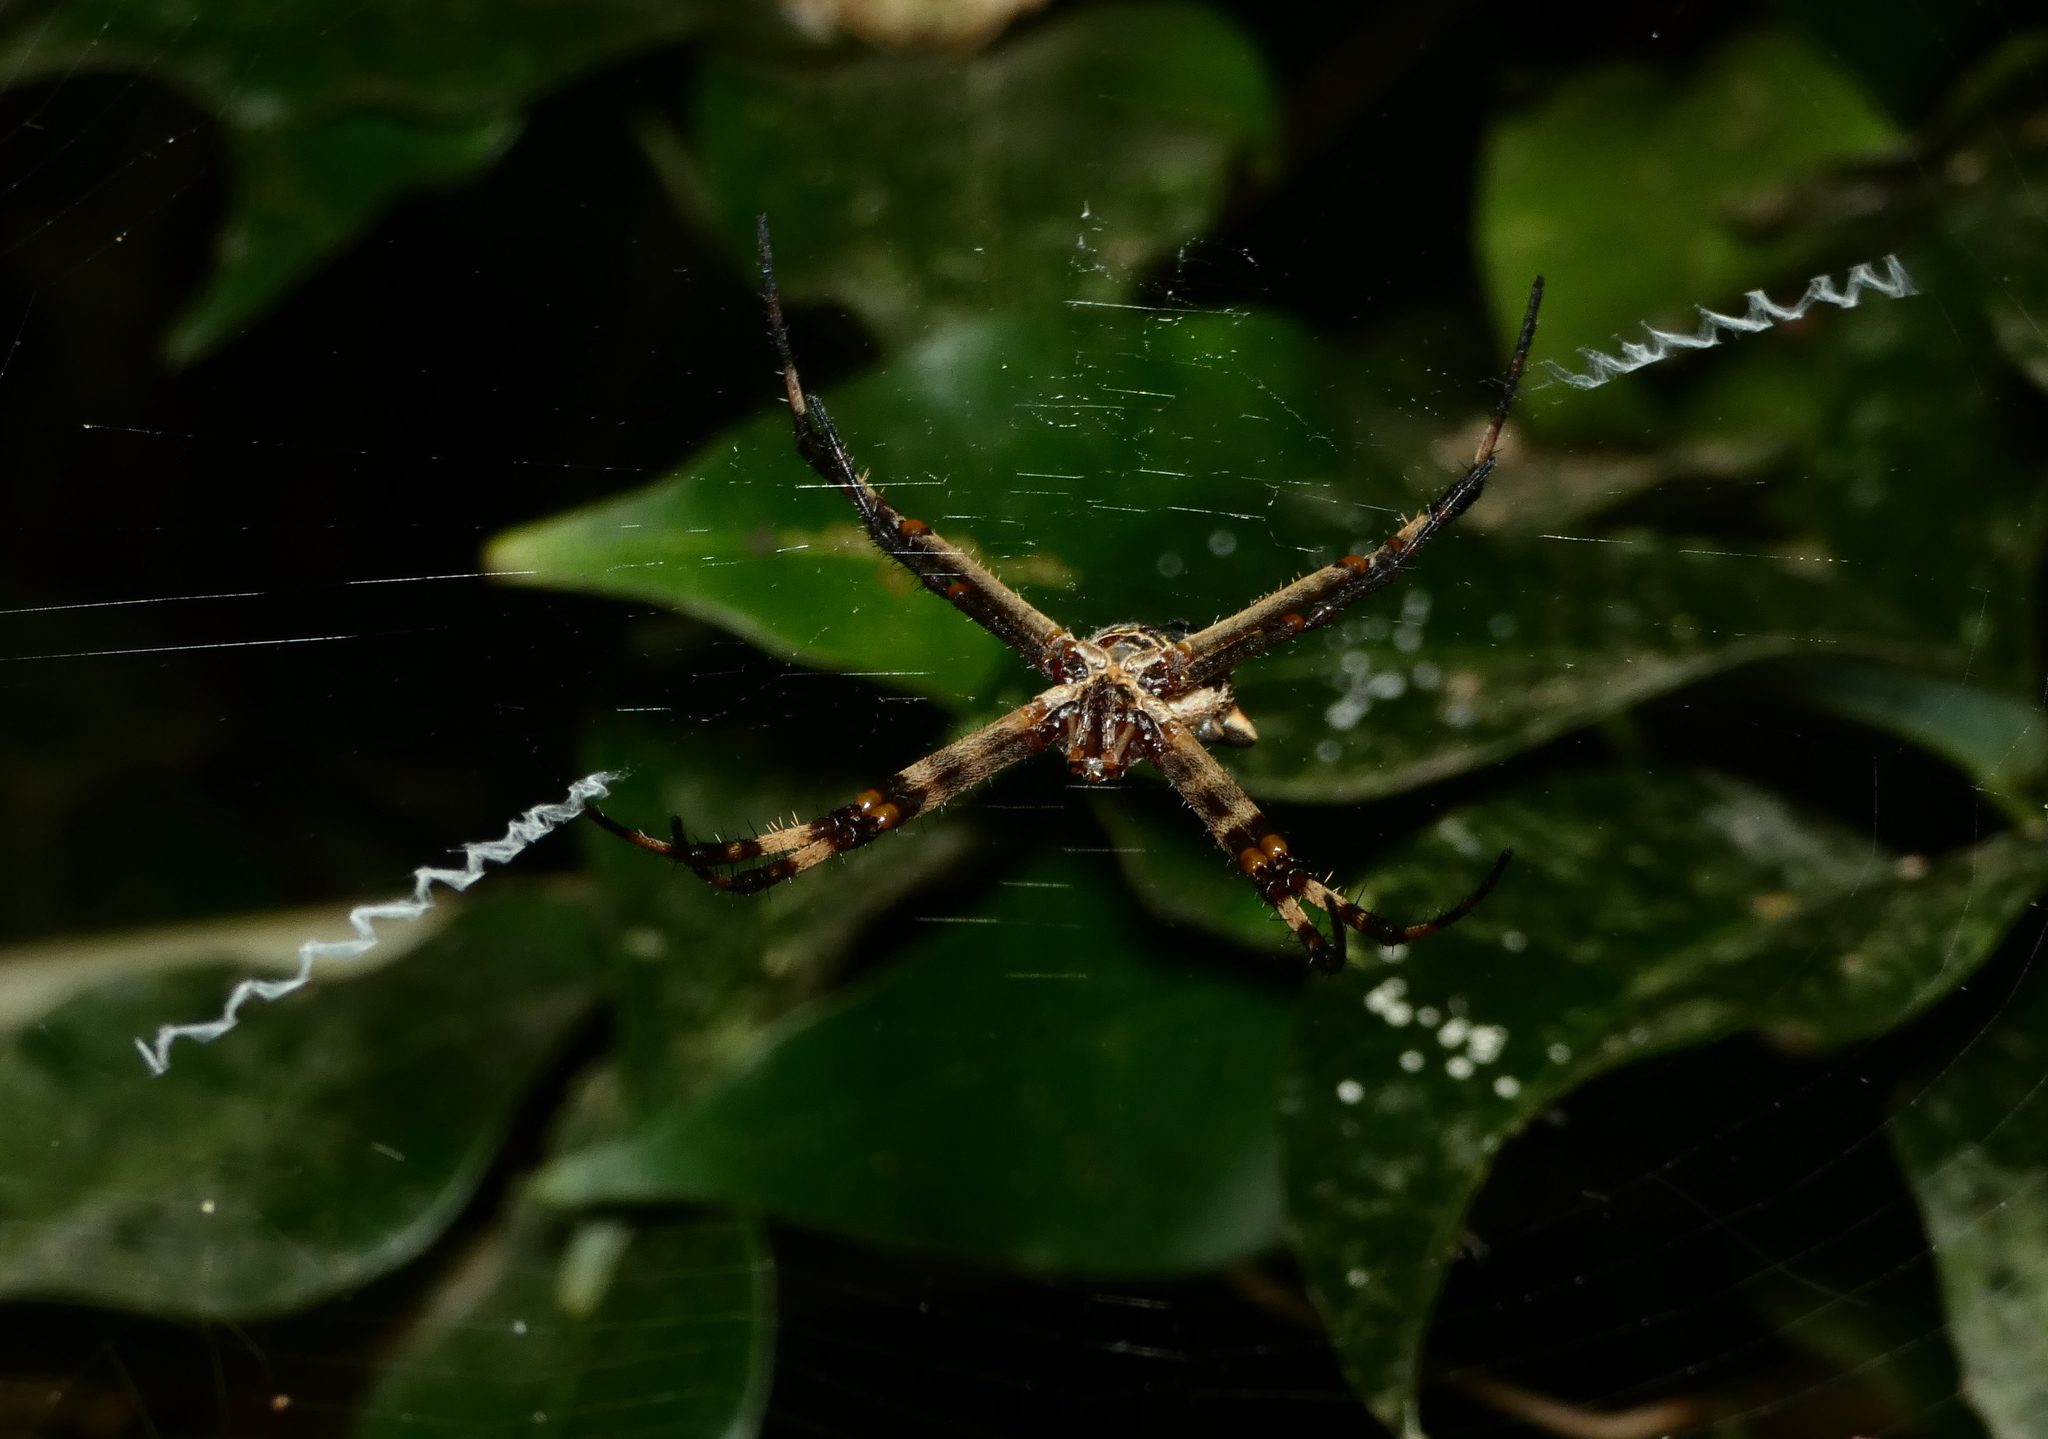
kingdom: Animalia
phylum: Arthropoda
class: Arachnida
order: Araneae
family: Araneidae
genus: Argiope
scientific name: Argiope argentata
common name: Orb weavers
